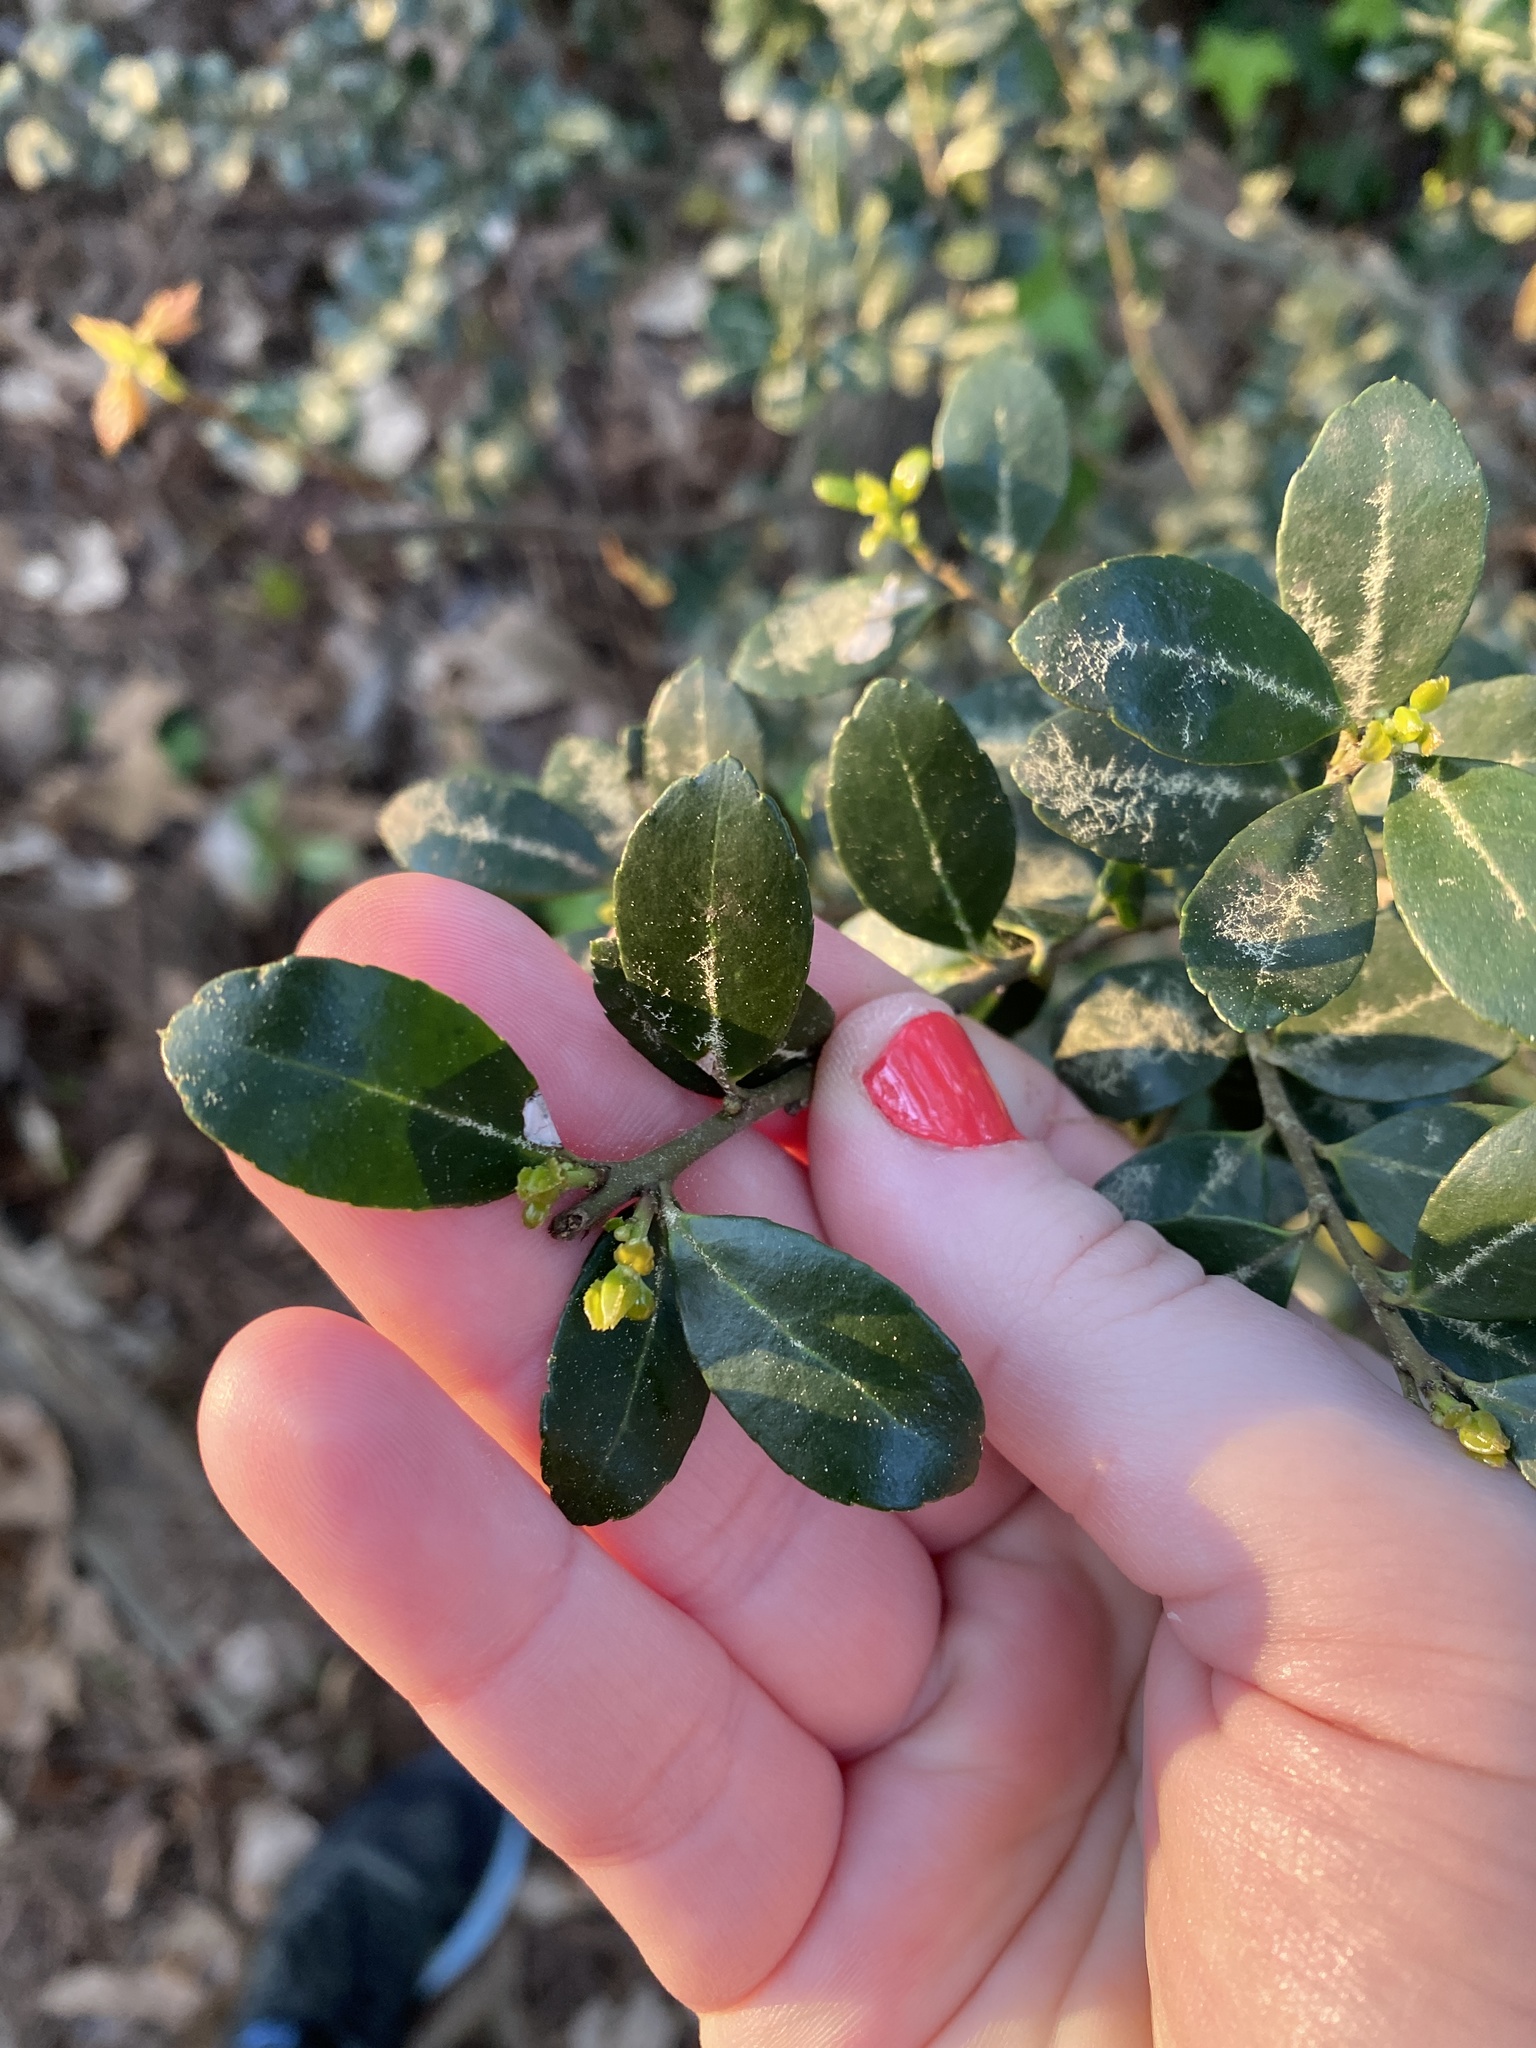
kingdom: Plantae
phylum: Tracheophyta
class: Magnoliopsida
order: Aquifoliales
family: Aquifoliaceae
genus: Ilex
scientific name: Ilex crenata
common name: Japanese holly
